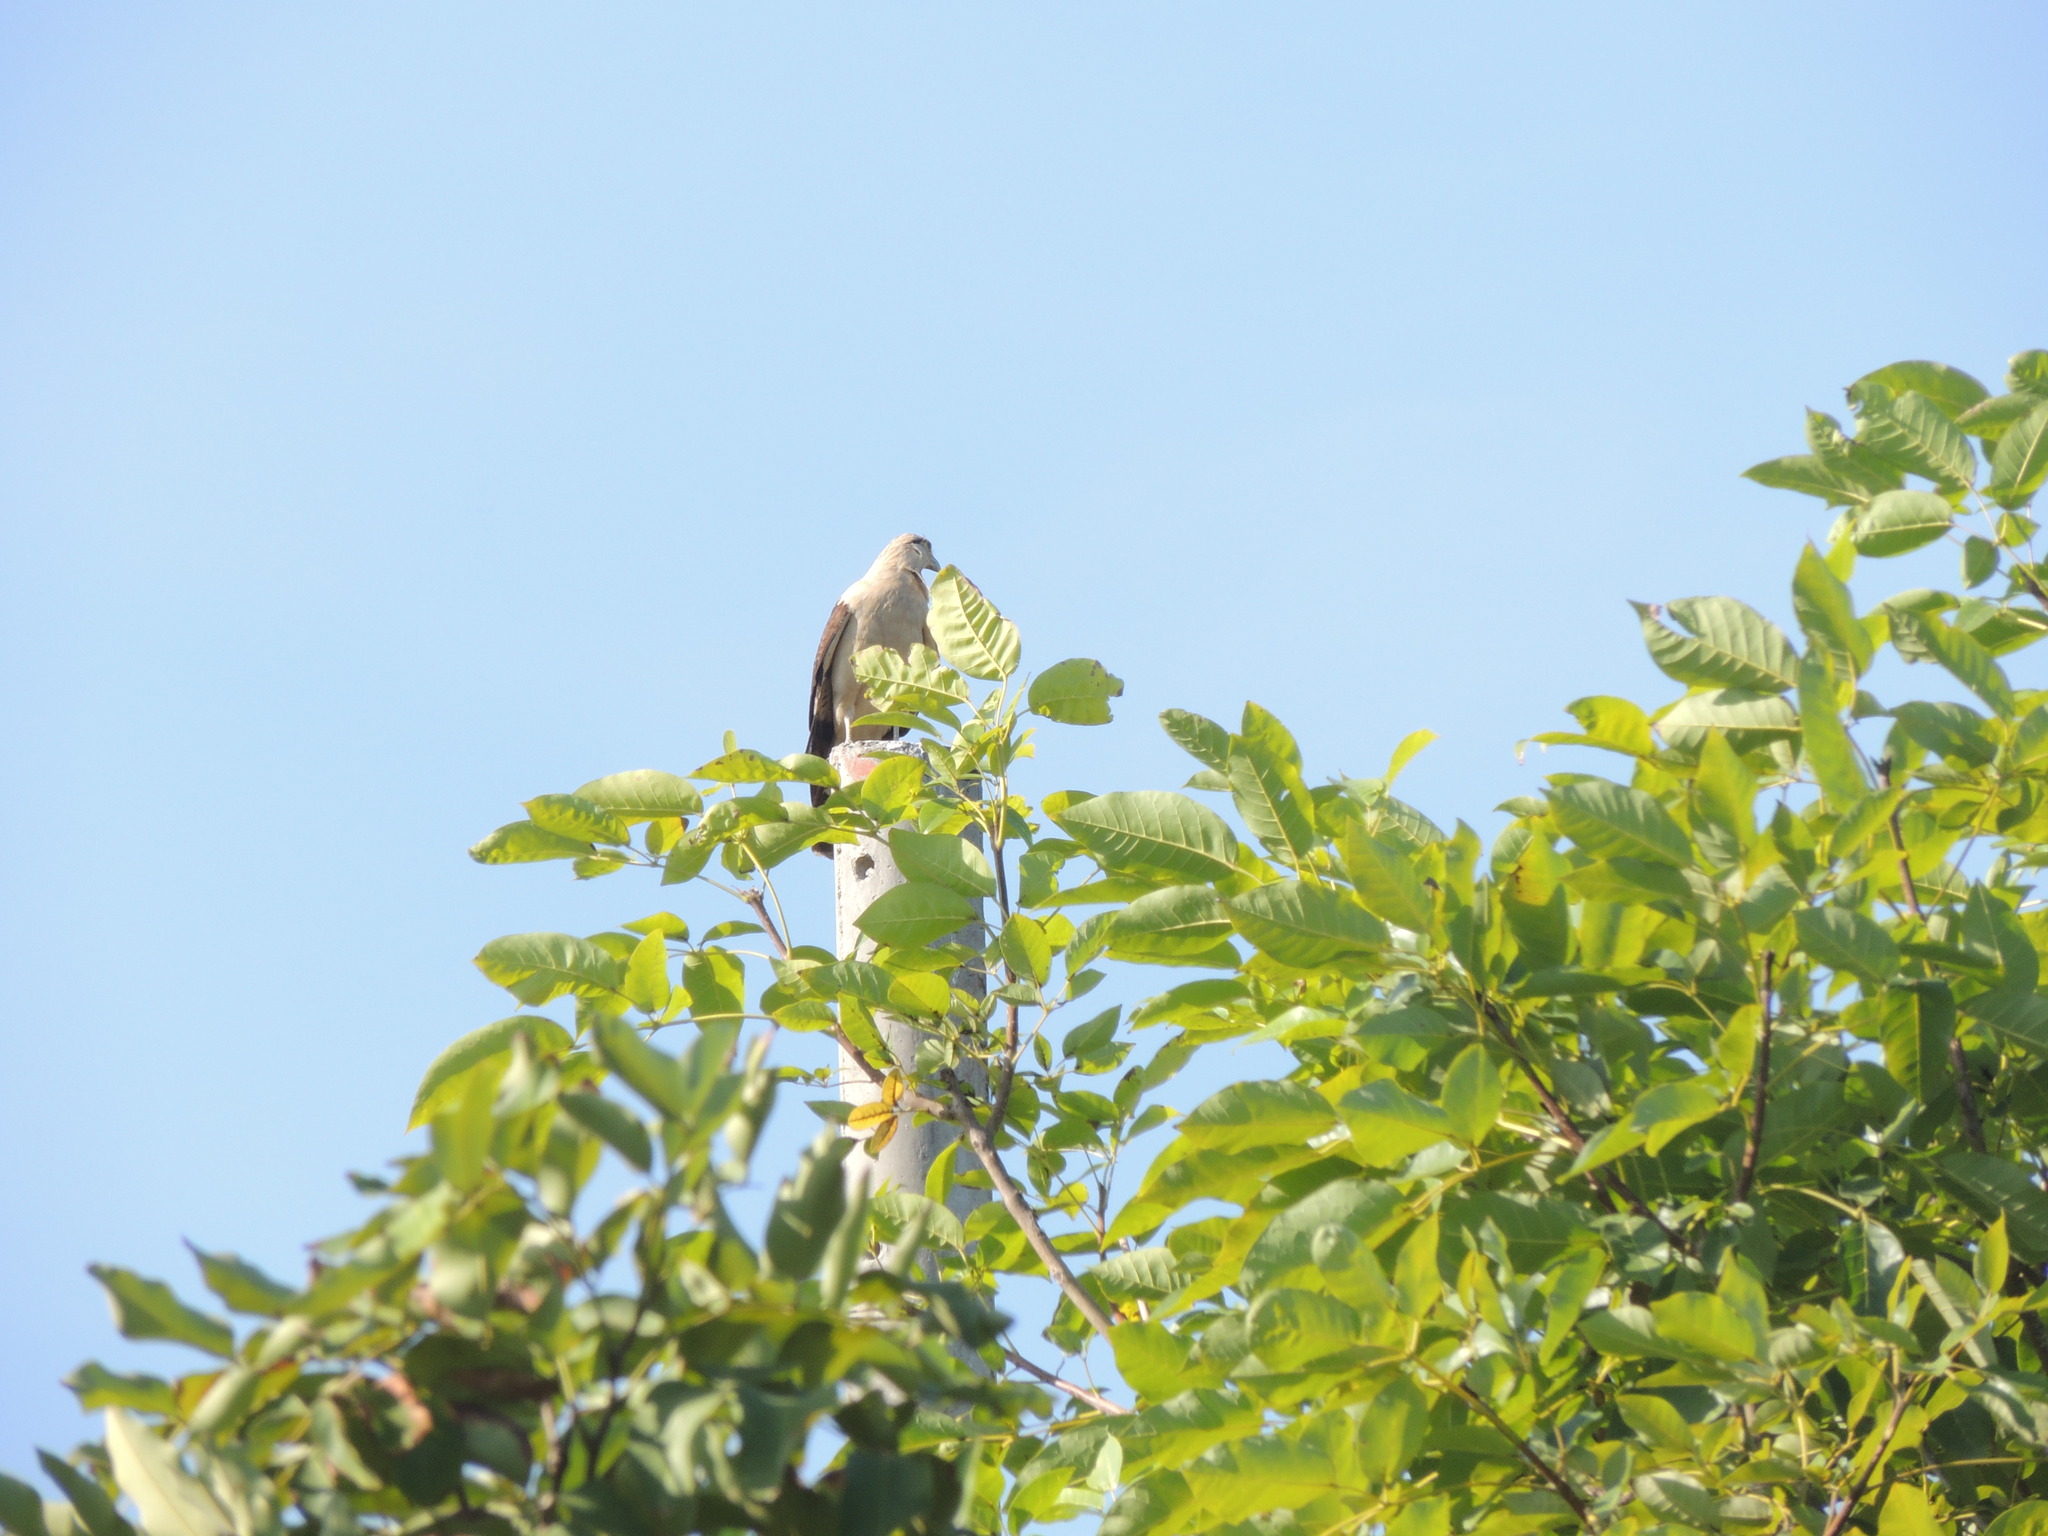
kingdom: Animalia
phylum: Chordata
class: Aves
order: Falconiformes
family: Falconidae
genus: Daptrius
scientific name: Daptrius
